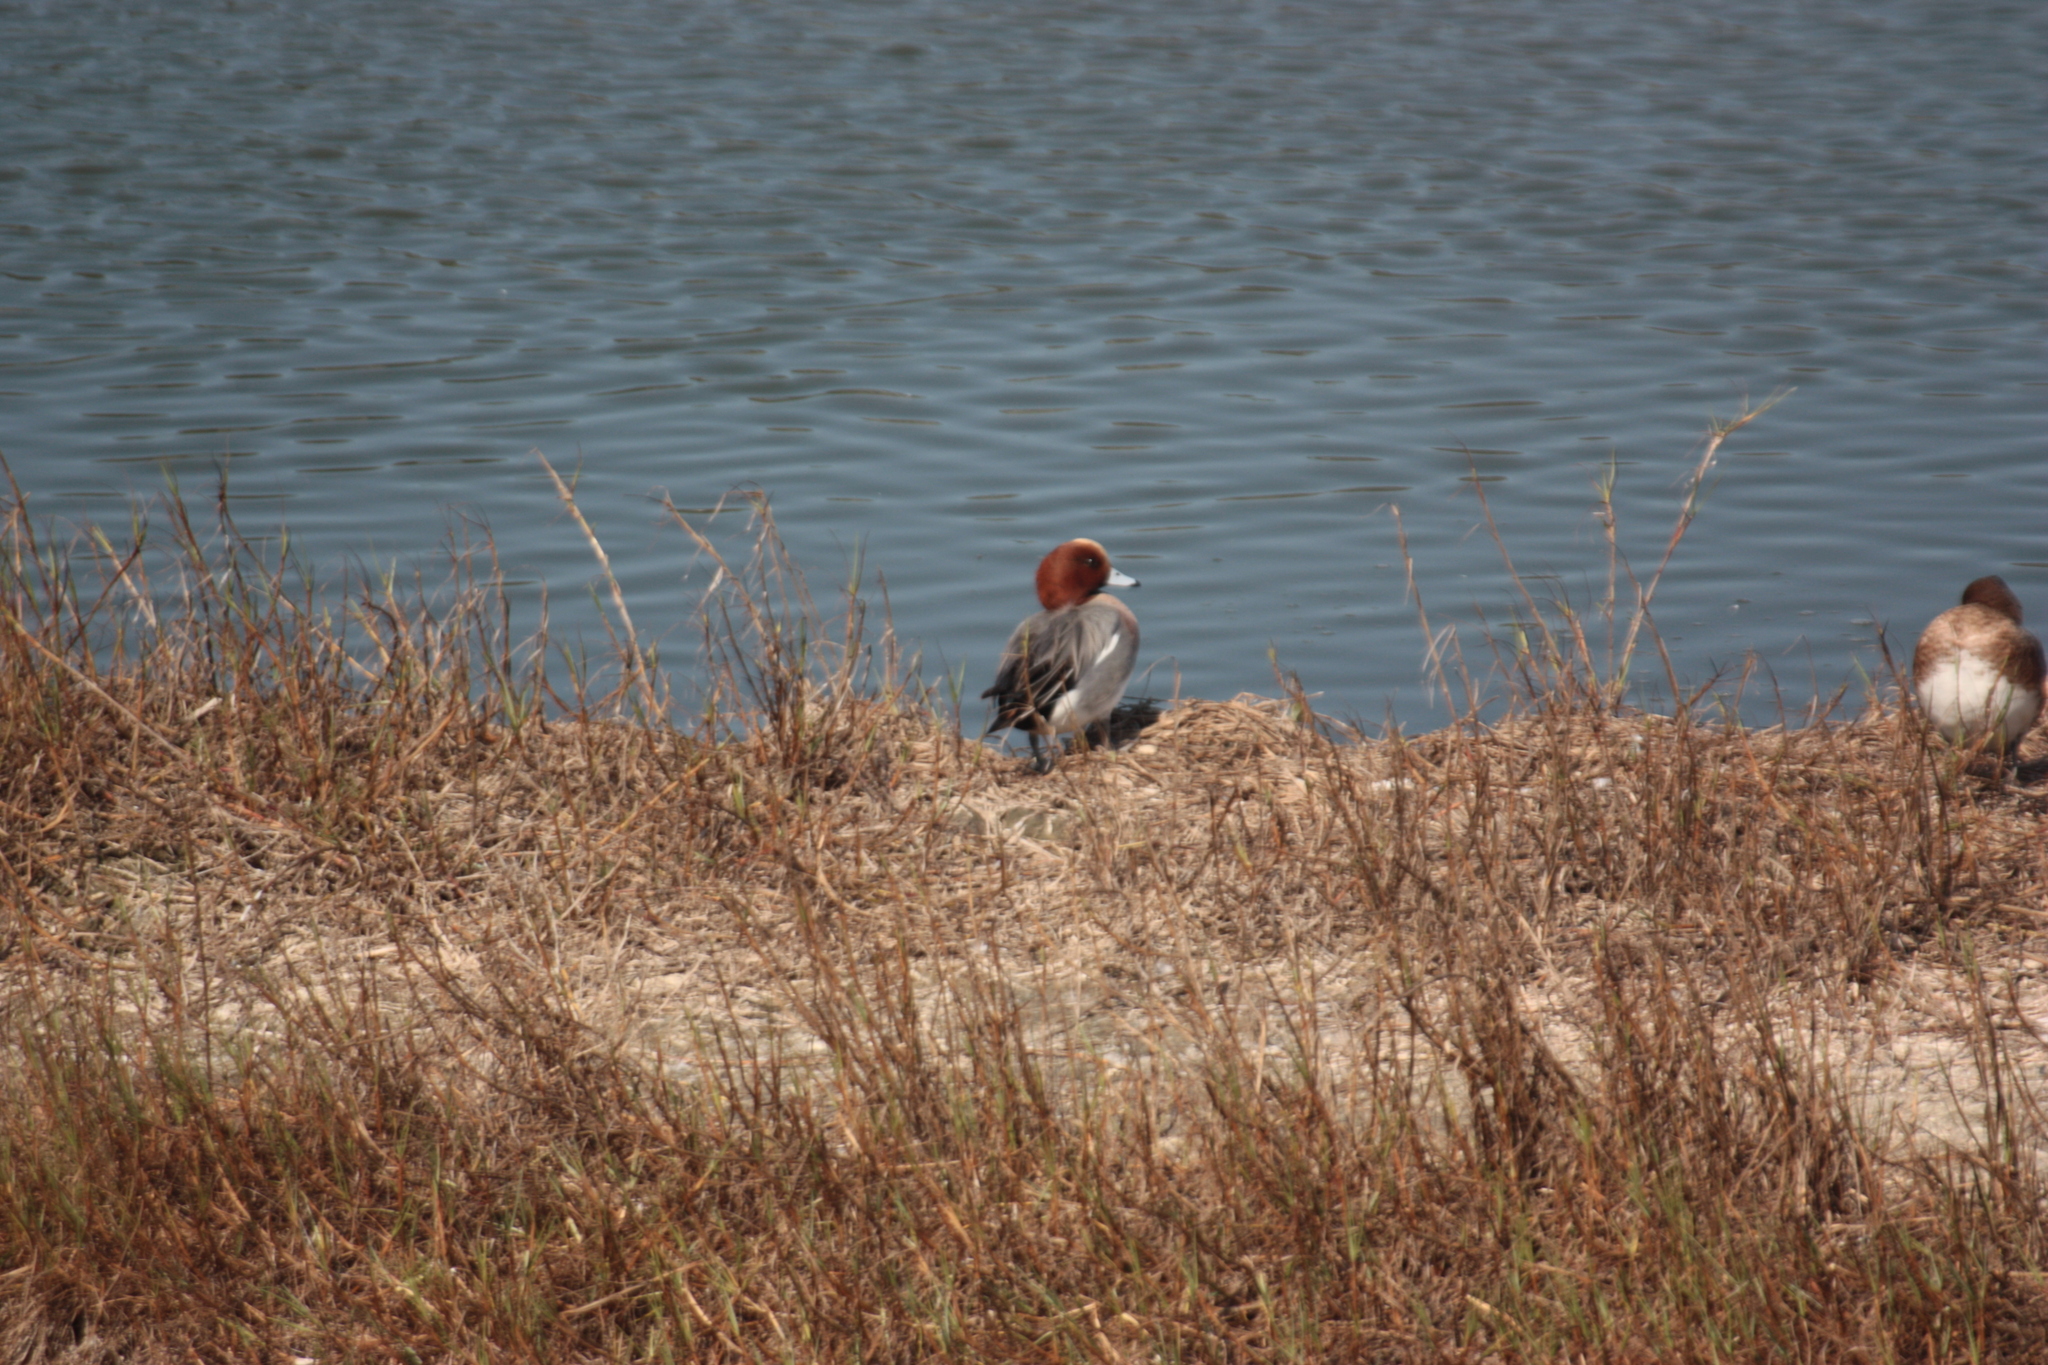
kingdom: Animalia
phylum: Chordata
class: Aves
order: Anseriformes
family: Anatidae
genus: Mareca
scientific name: Mareca penelope
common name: Eurasian wigeon
